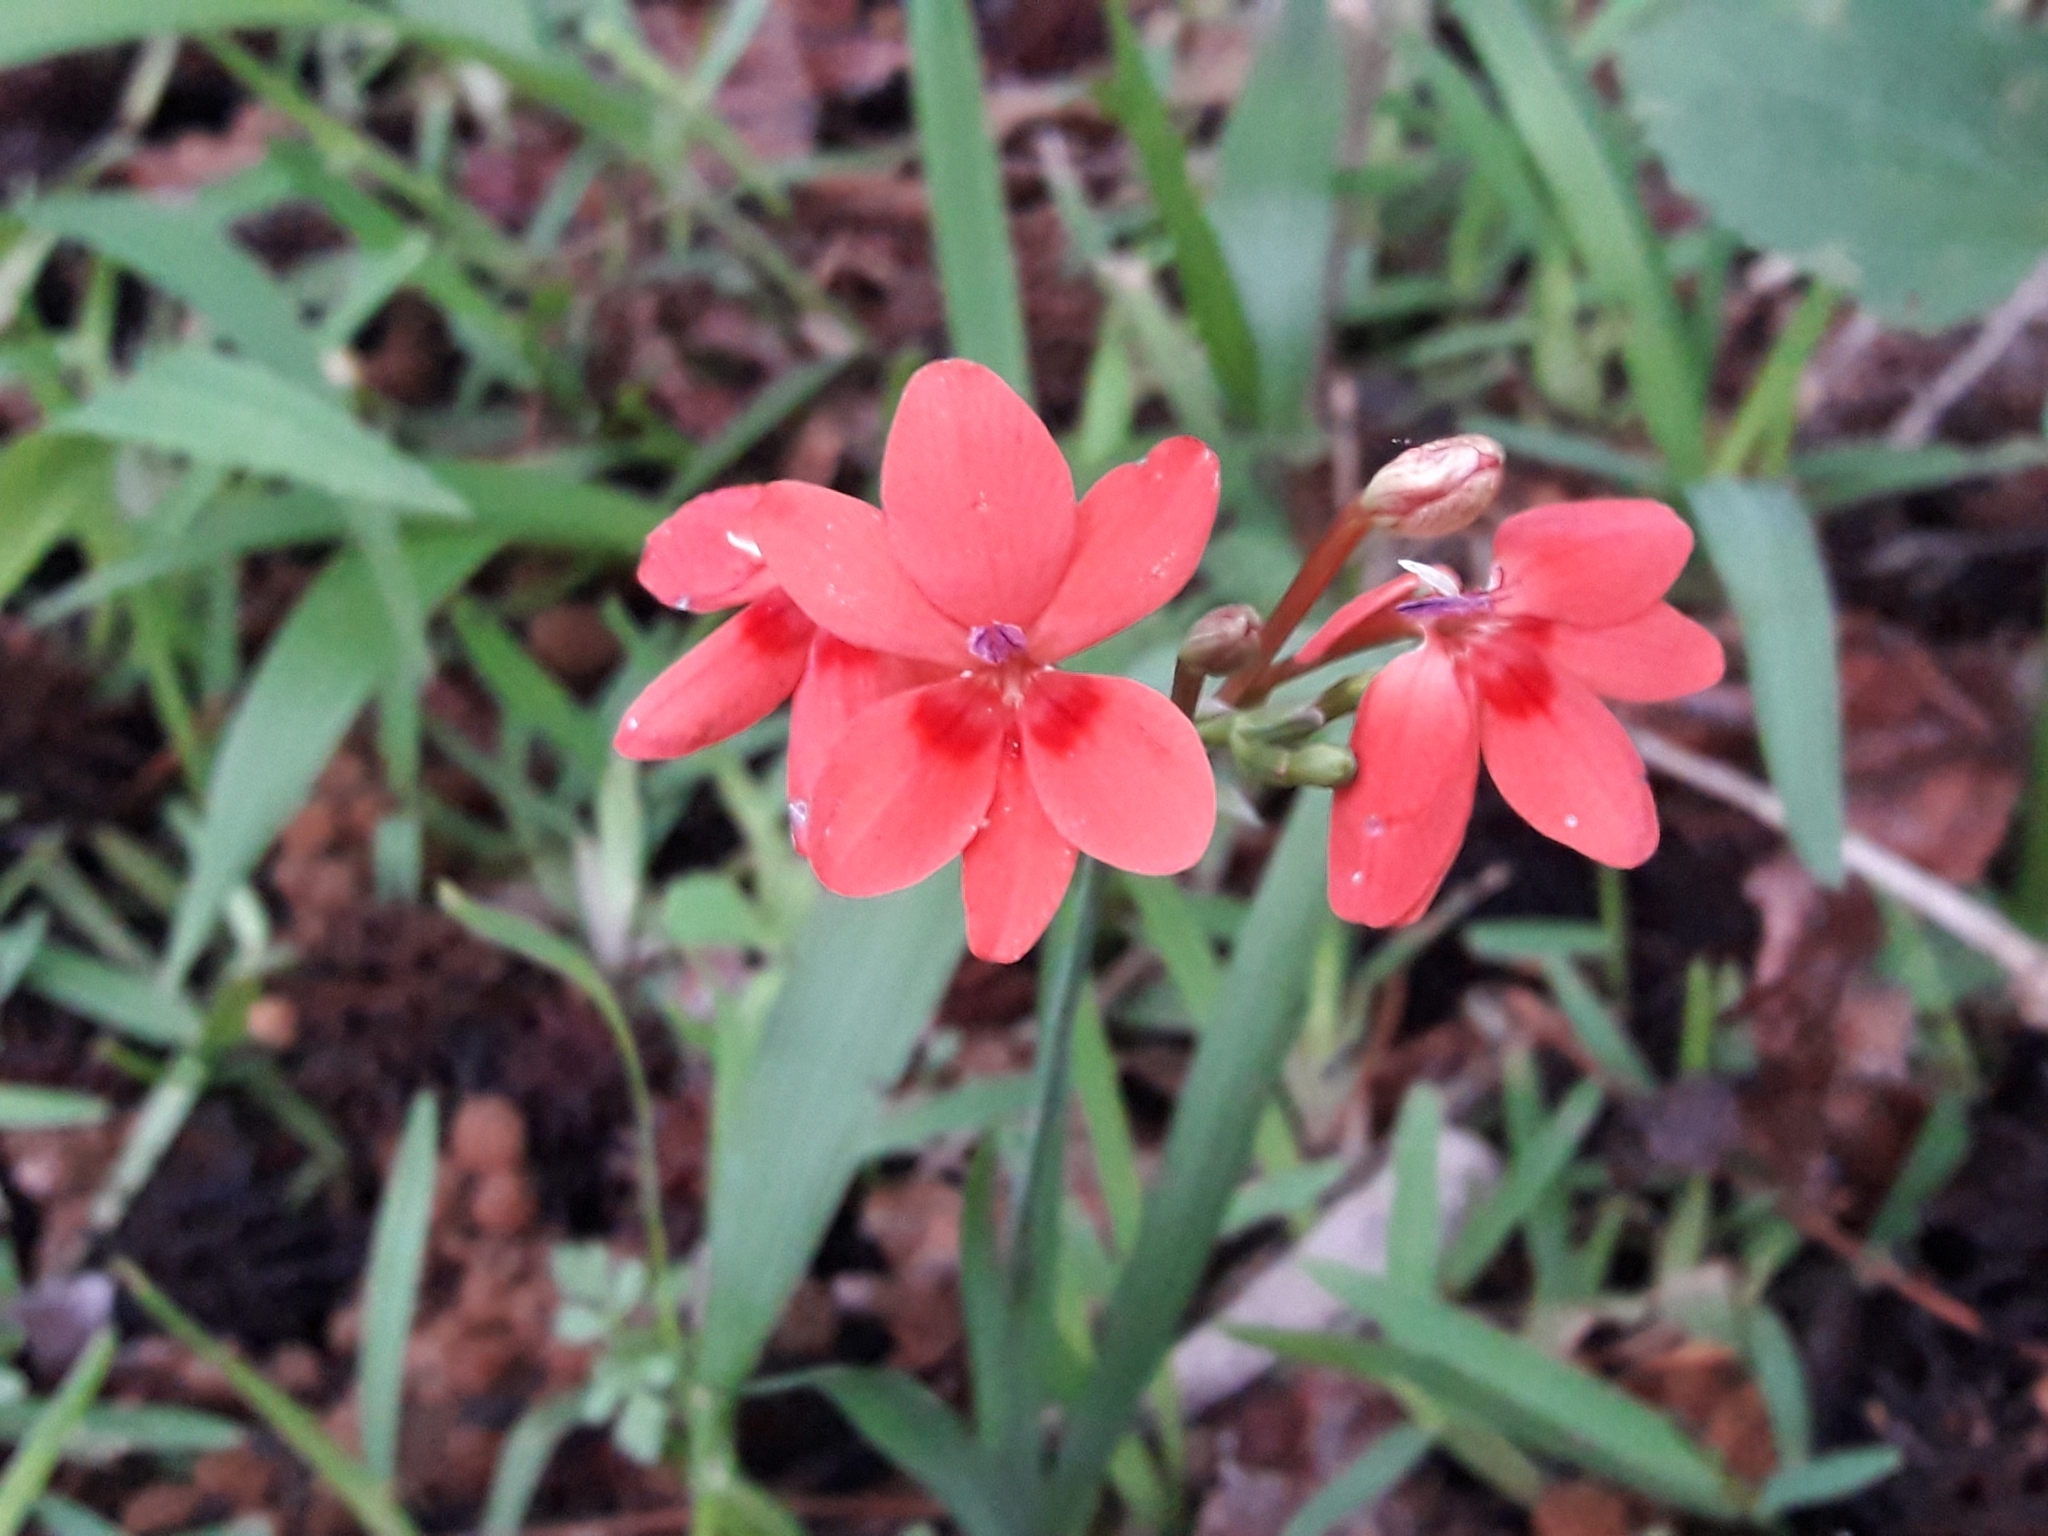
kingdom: Plantae
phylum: Tracheophyta
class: Liliopsida
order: Asparagales
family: Iridaceae
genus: Freesia
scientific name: Freesia laxa
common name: False freesia
